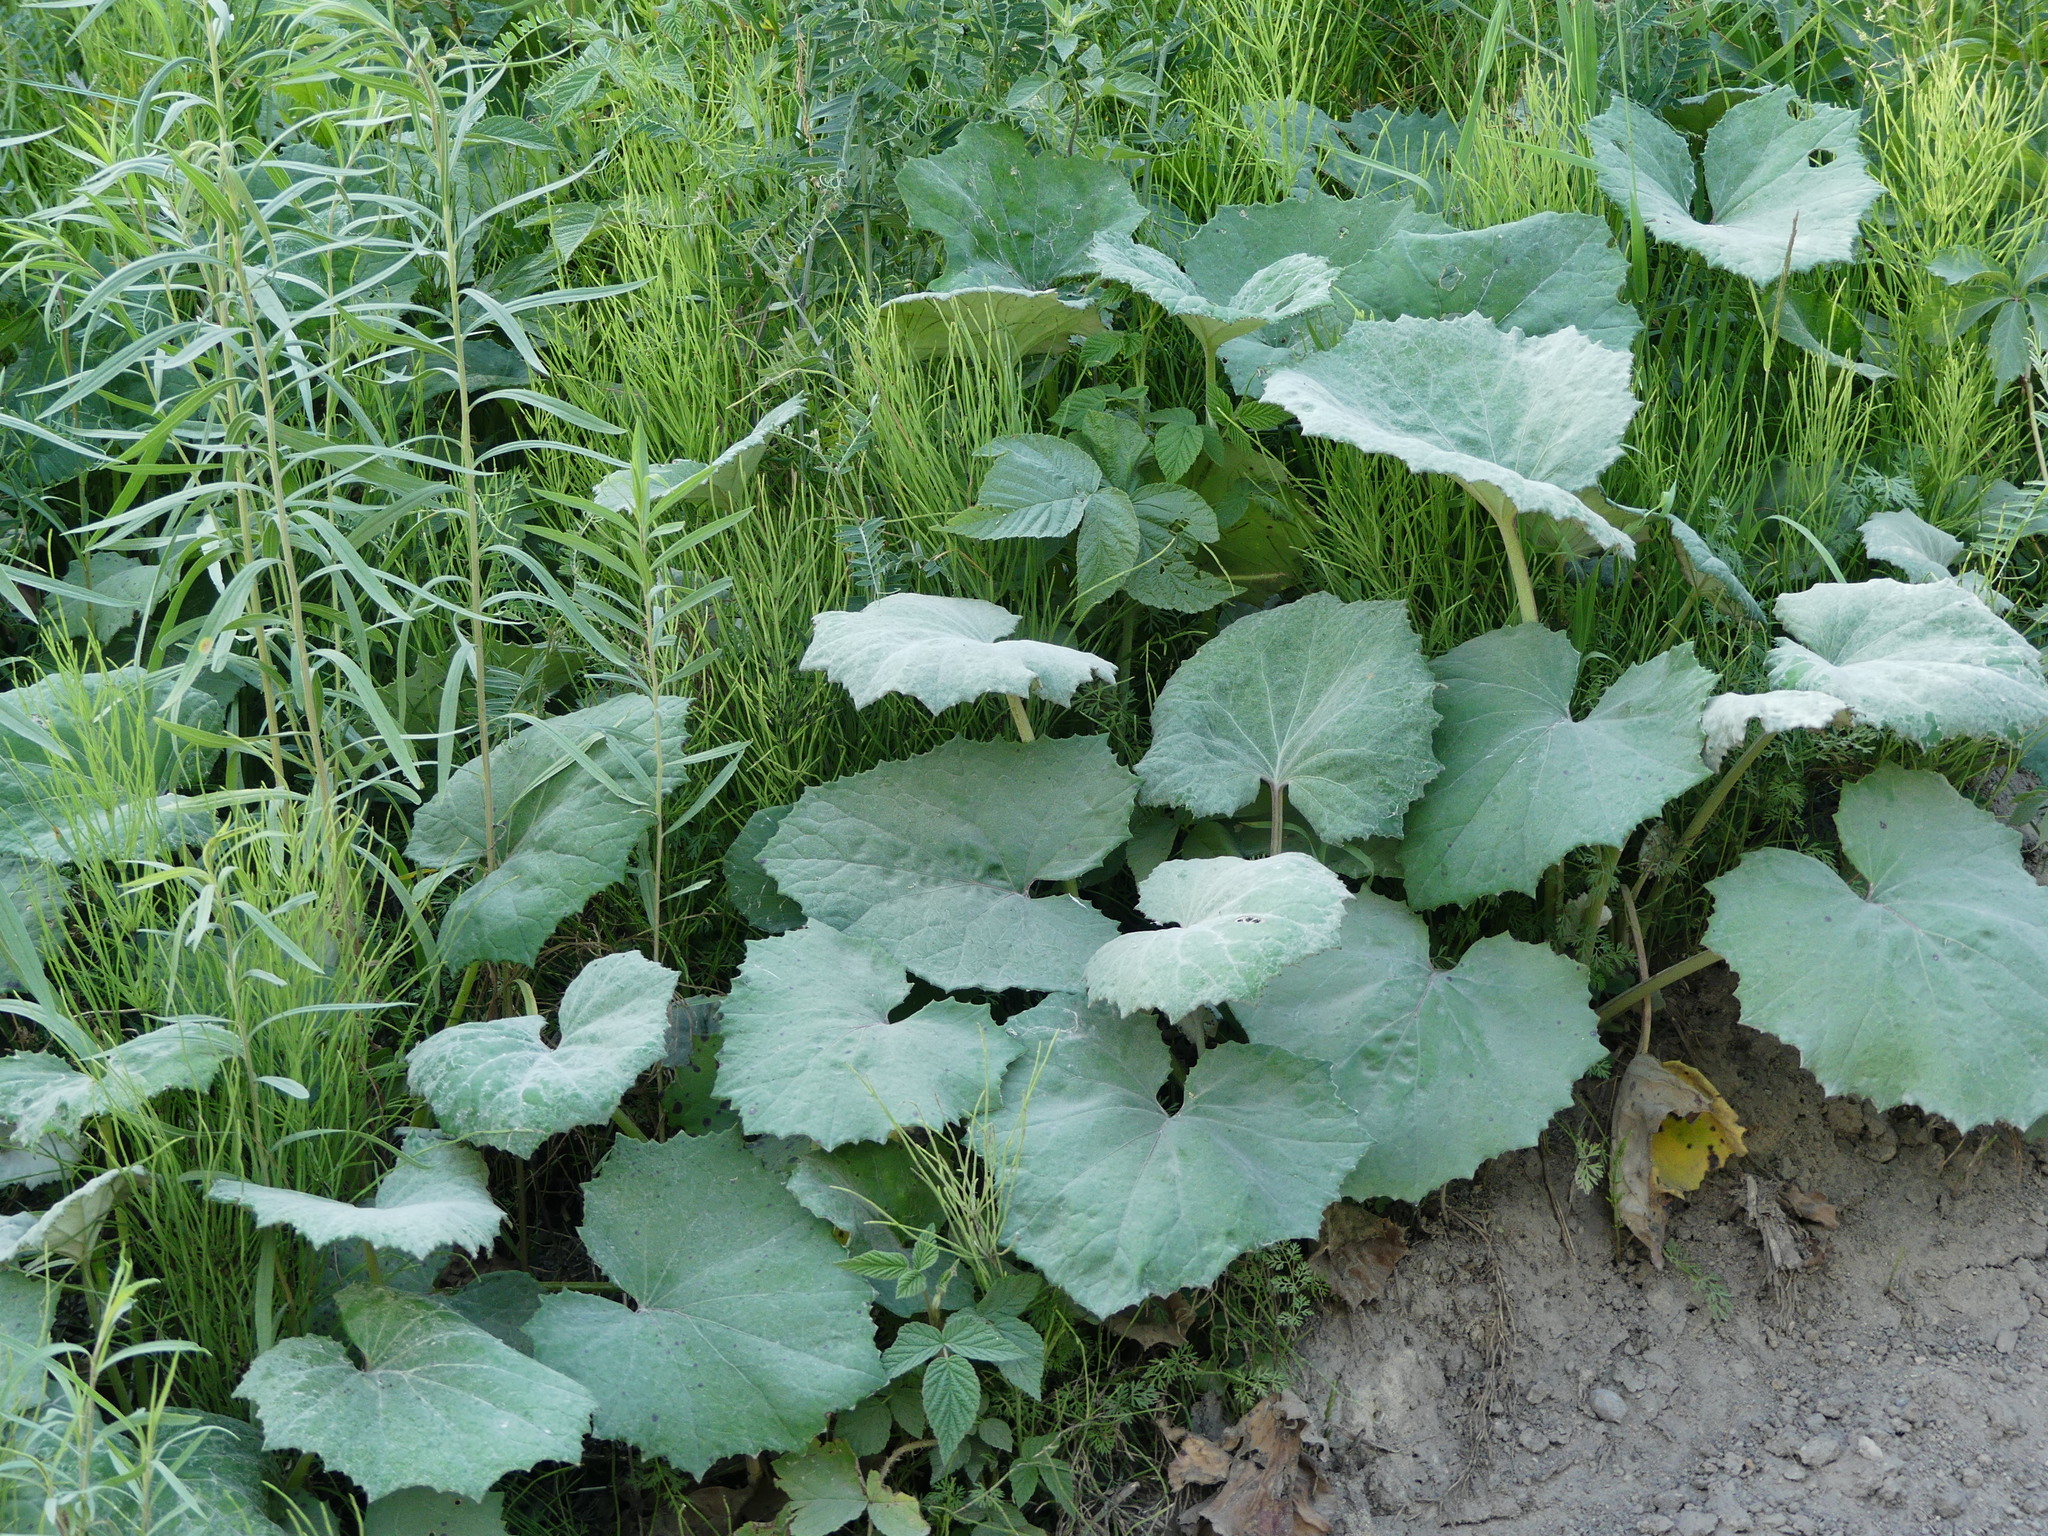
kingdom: Plantae
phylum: Tracheophyta
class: Magnoliopsida
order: Asterales
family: Asteraceae
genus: Tussilago
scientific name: Tussilago farfara
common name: Coltsfoot
